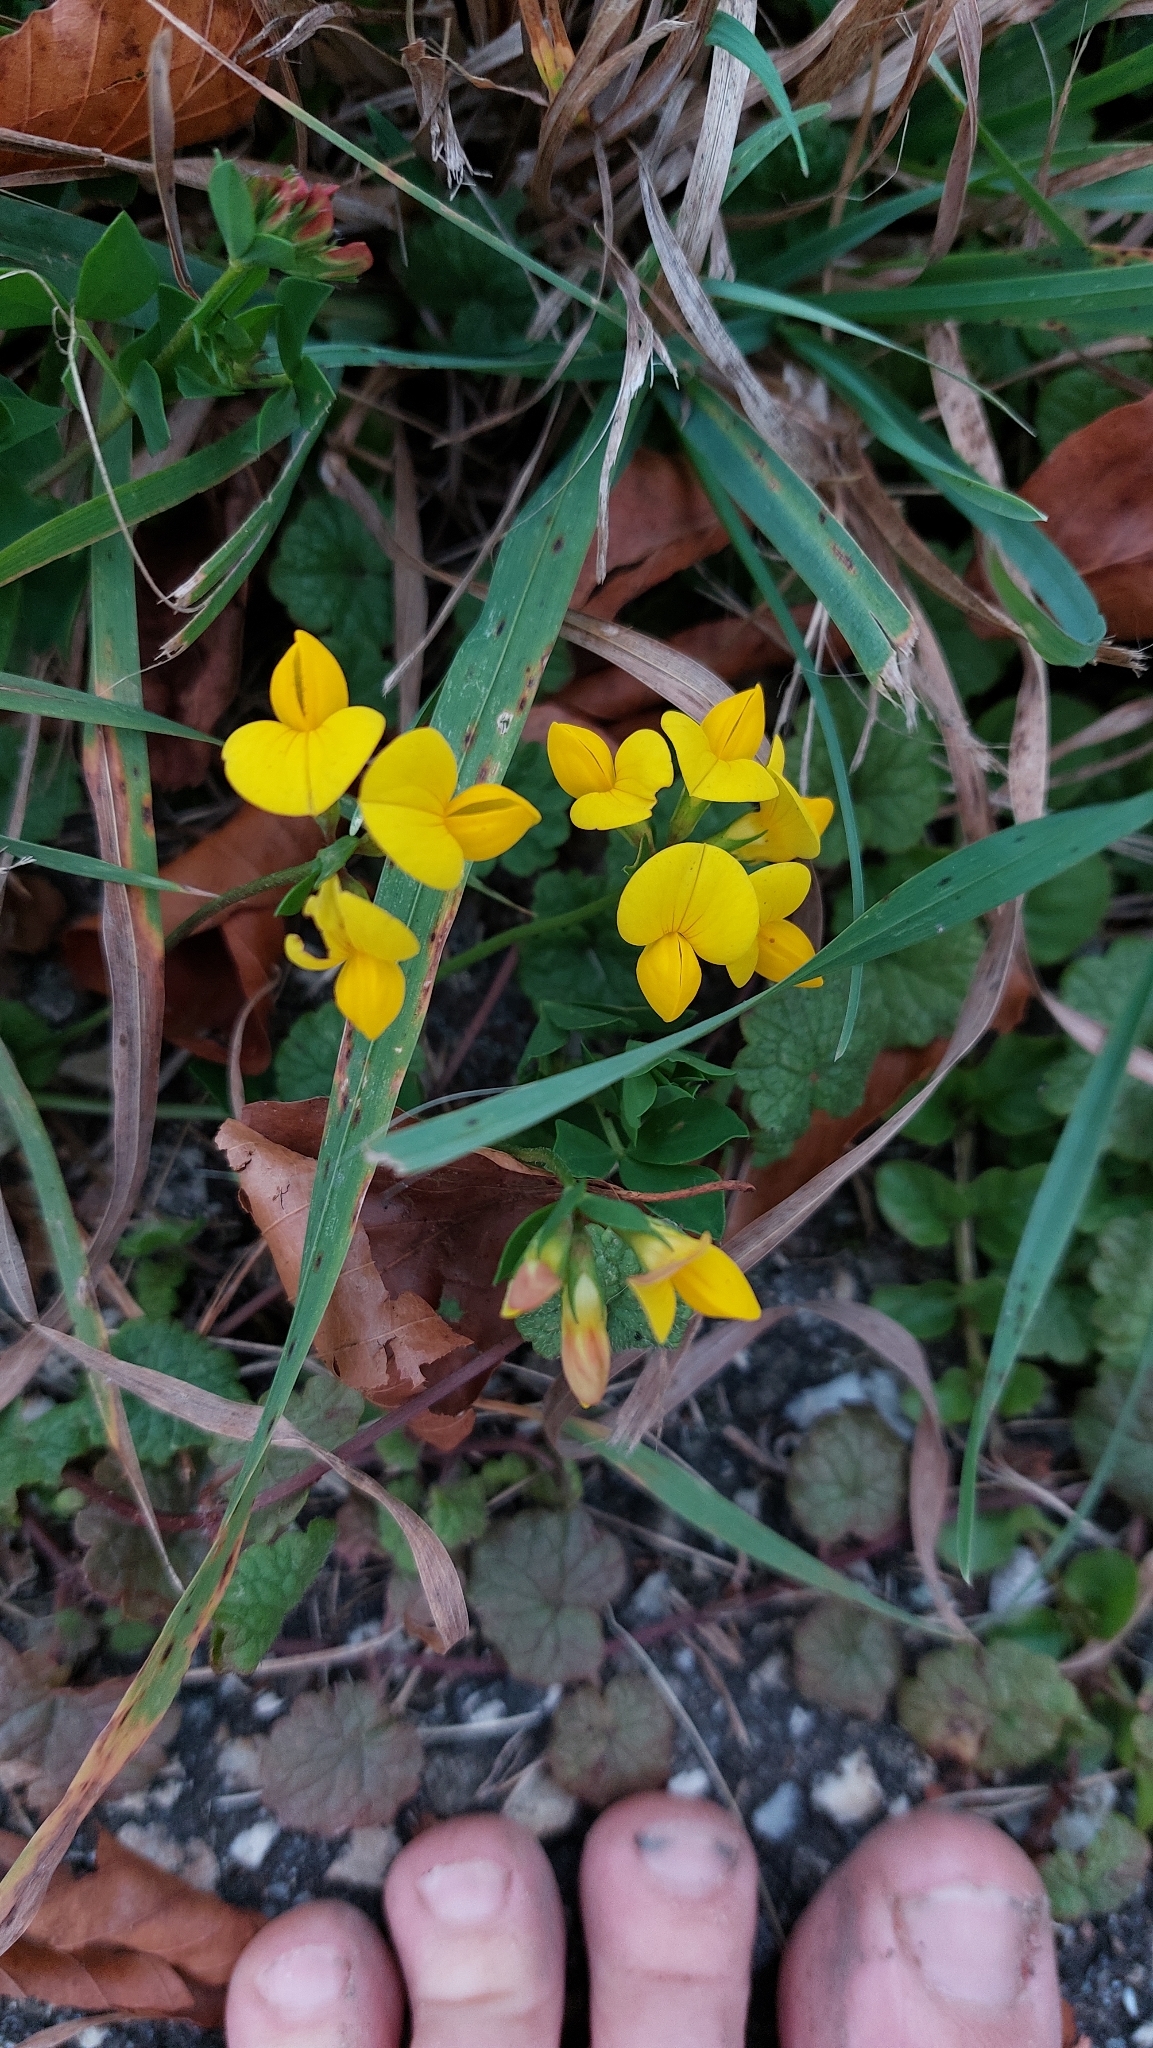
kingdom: Plantae
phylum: Tracheophyta
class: Magnoliopsida
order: Fabales
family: Fabaceae
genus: Lotus
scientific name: Lotus corniculatus
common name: Common bird's-foot-trefoil
